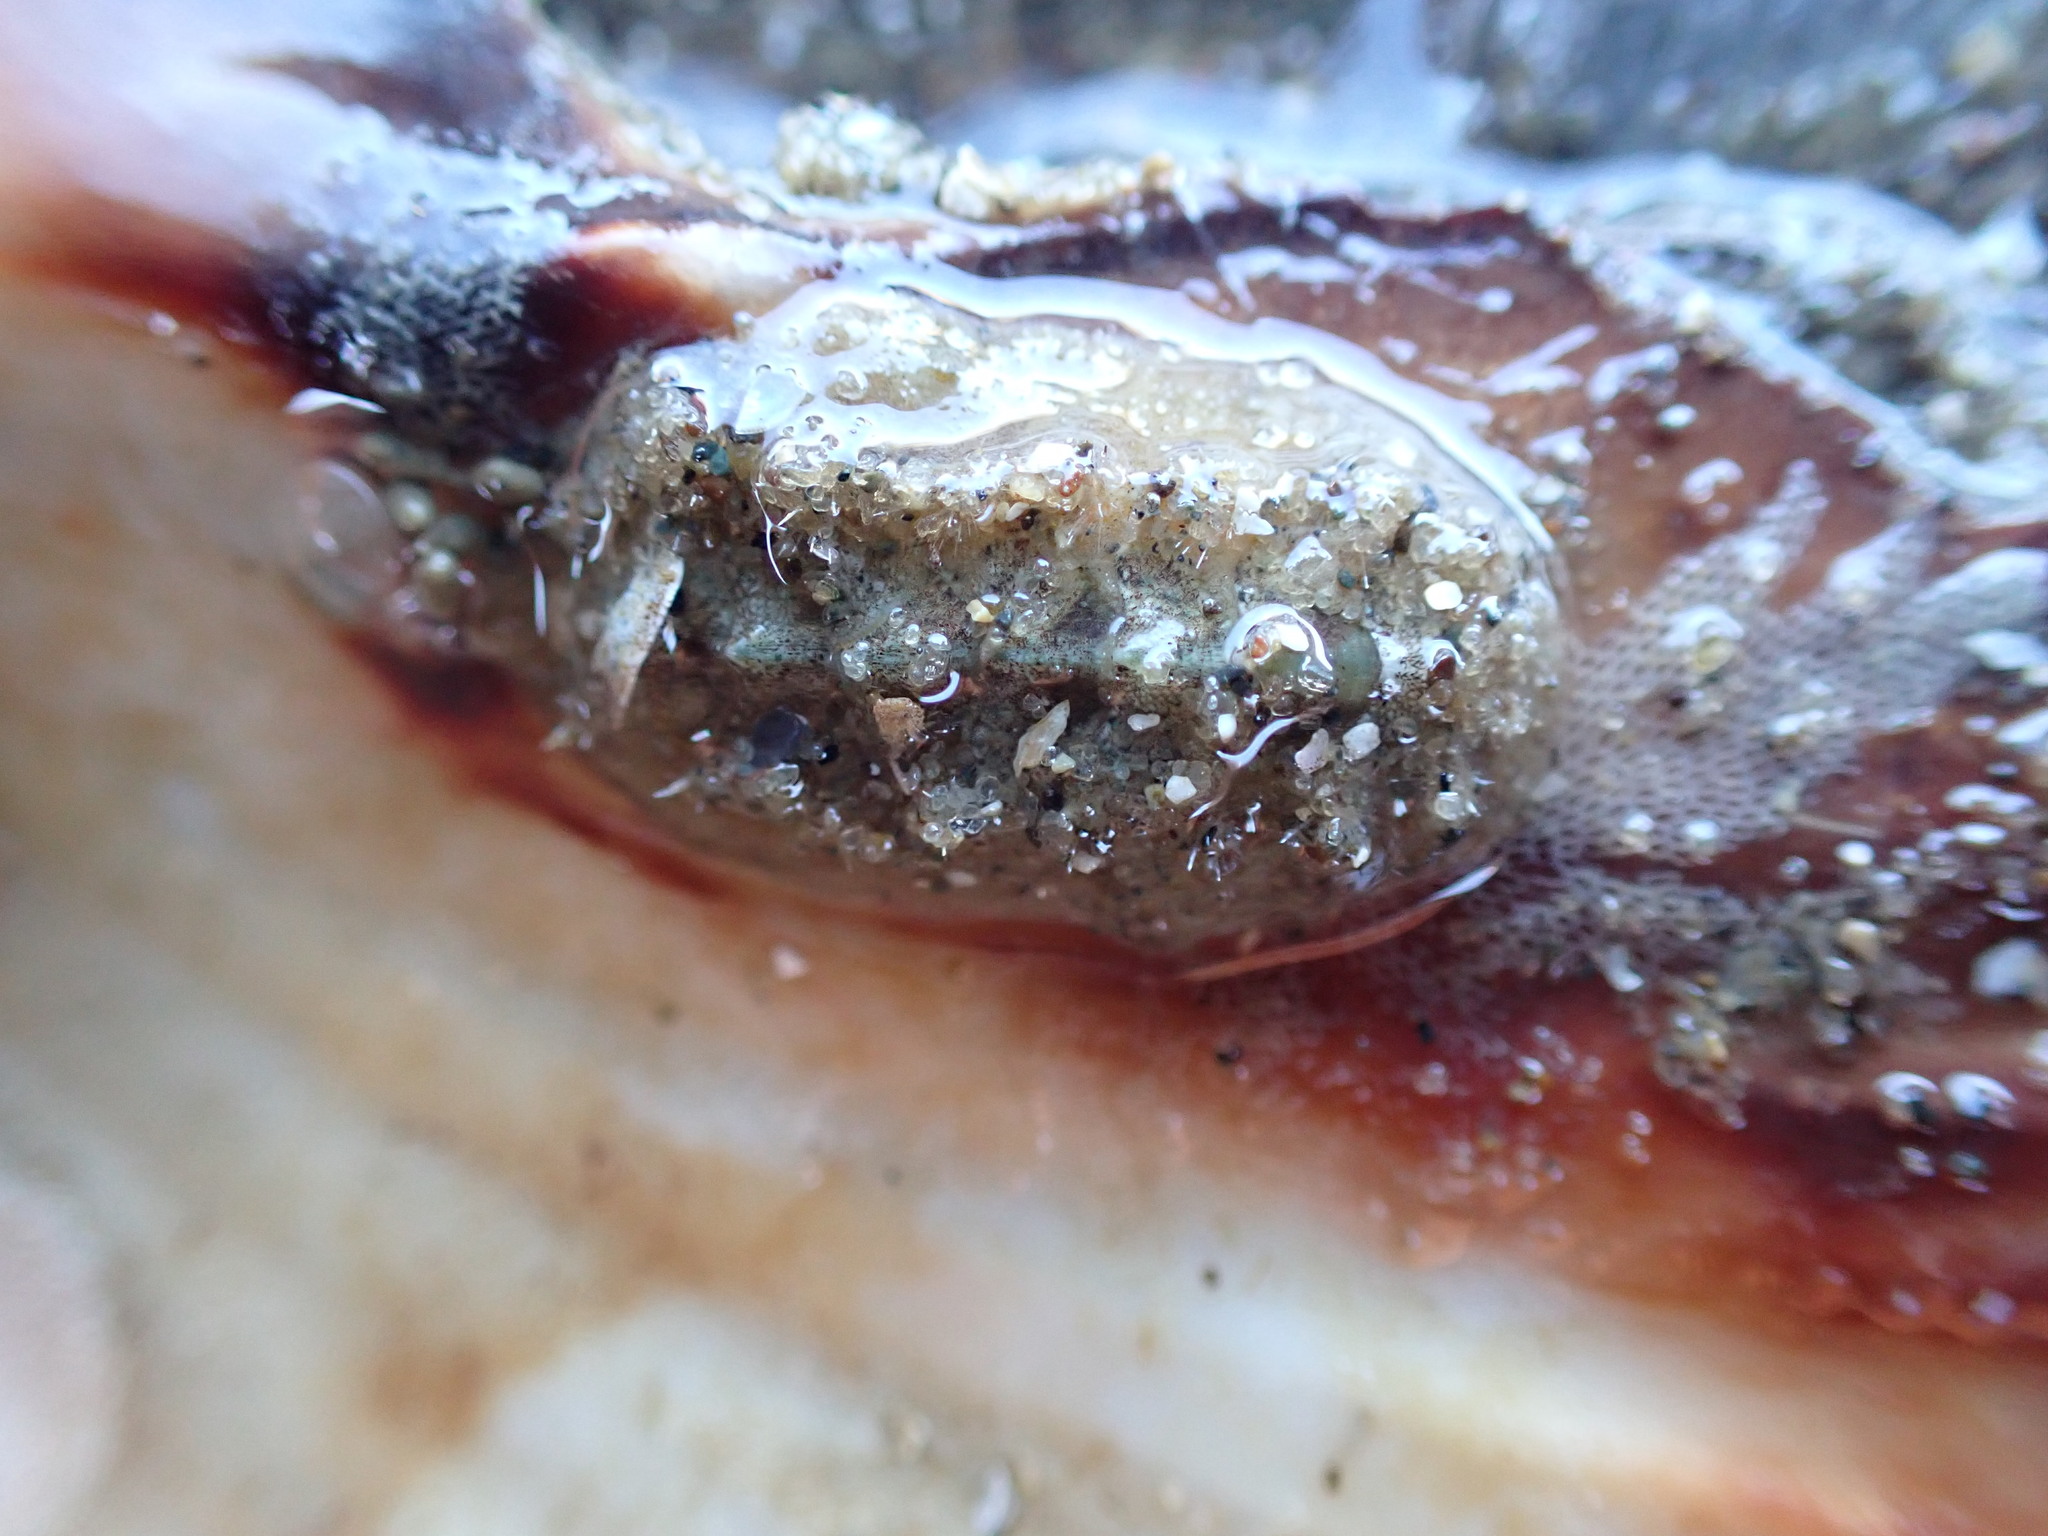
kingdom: Animalia
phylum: Mollusca
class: Polyplacophora
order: Chitonida
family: Acanthochitonidae
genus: Acanthochitona
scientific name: Acanthochitona zelandica
